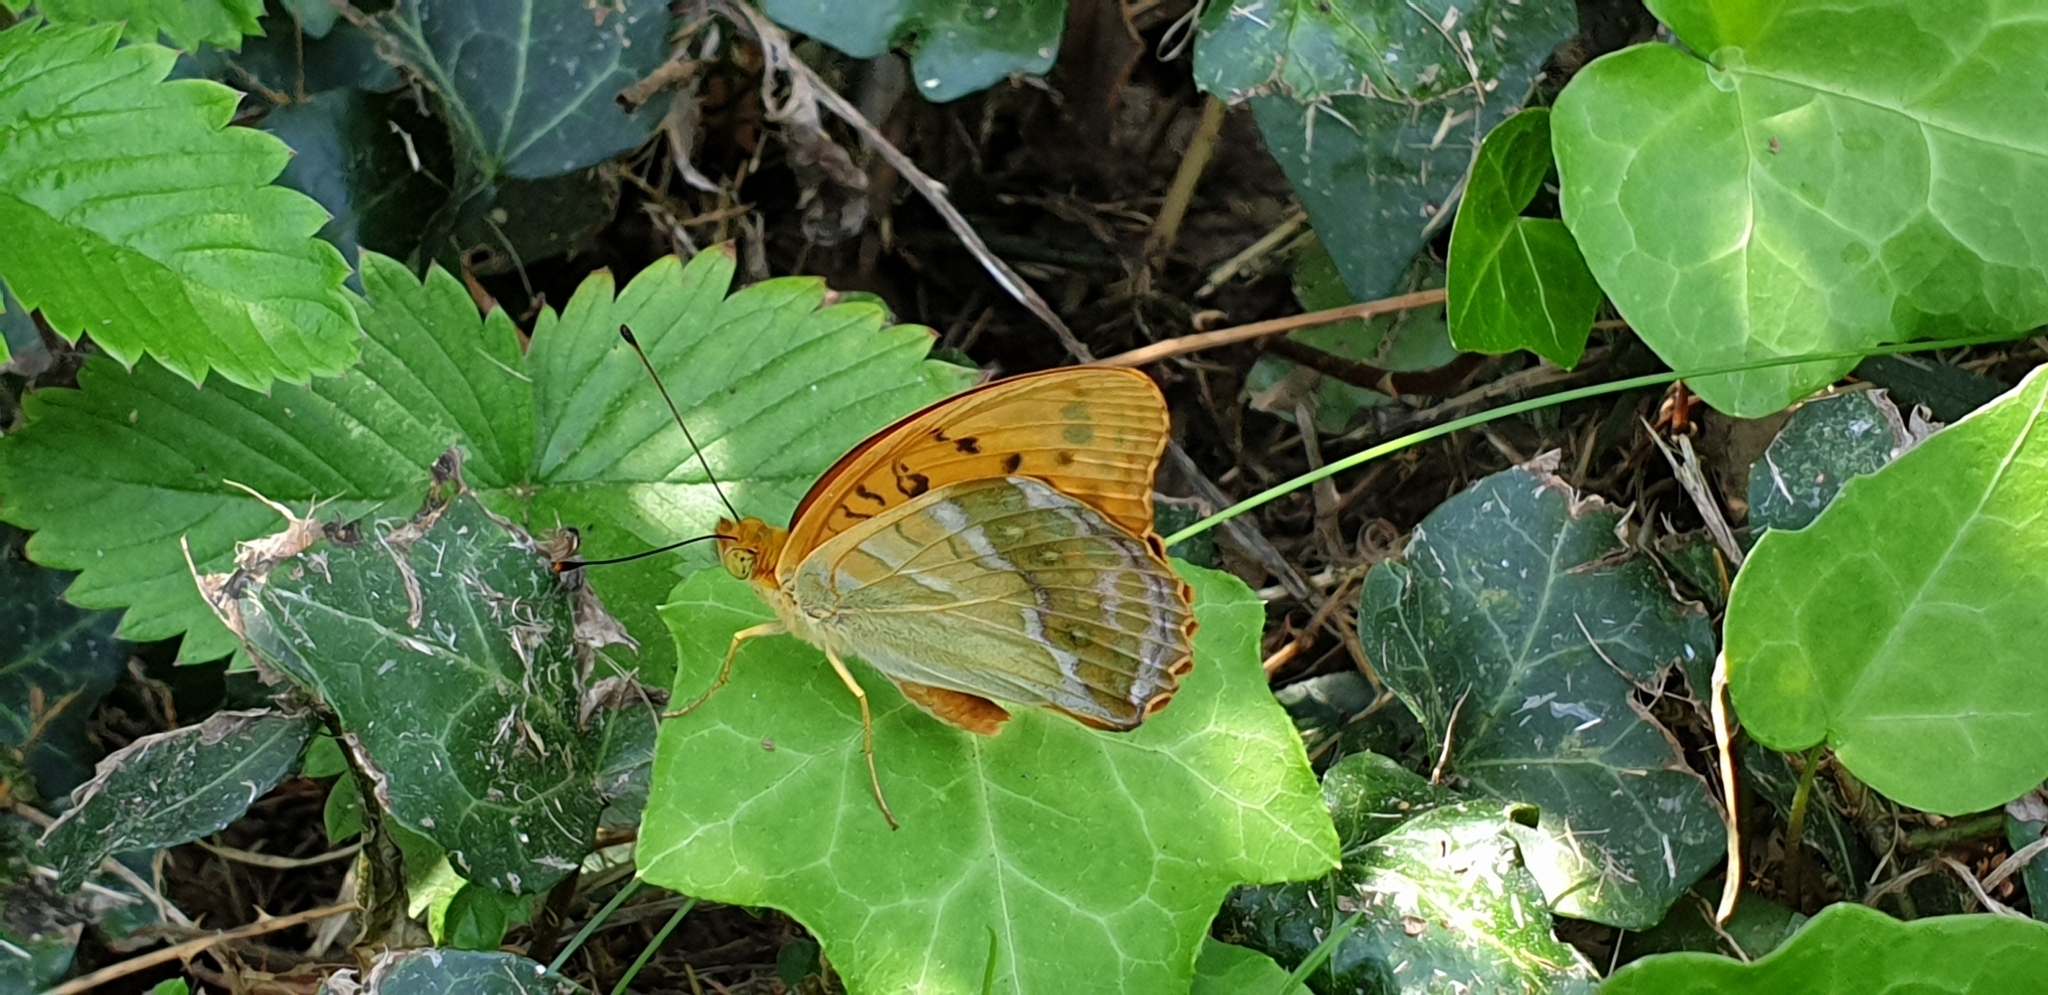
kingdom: Animalia
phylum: Arthropoda
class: Insecta
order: Lepidoptera
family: Nymphalidae
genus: Argynnis
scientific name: Argynnis paphia
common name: Silver-washed fritillary
